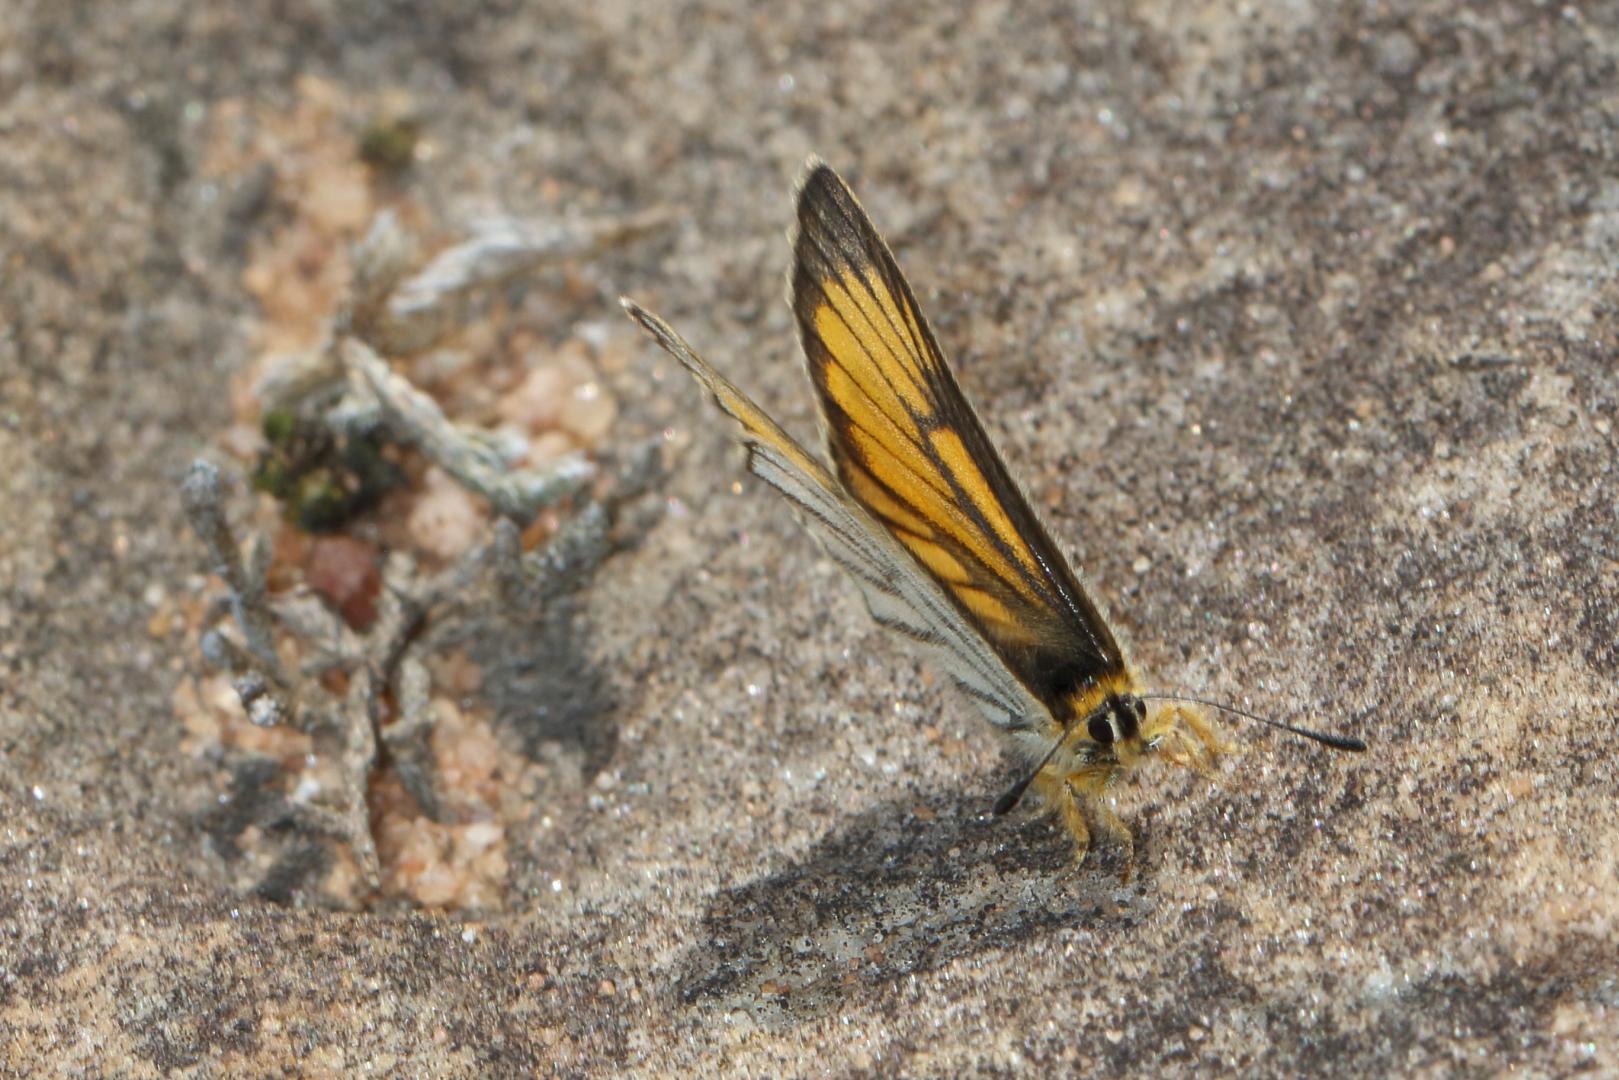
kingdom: Animalia
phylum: Arthropoda
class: Insecta
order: Lepidoptera
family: Lycaenidae
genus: Alaena
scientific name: Alaena amazoula
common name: Yellow zulu
